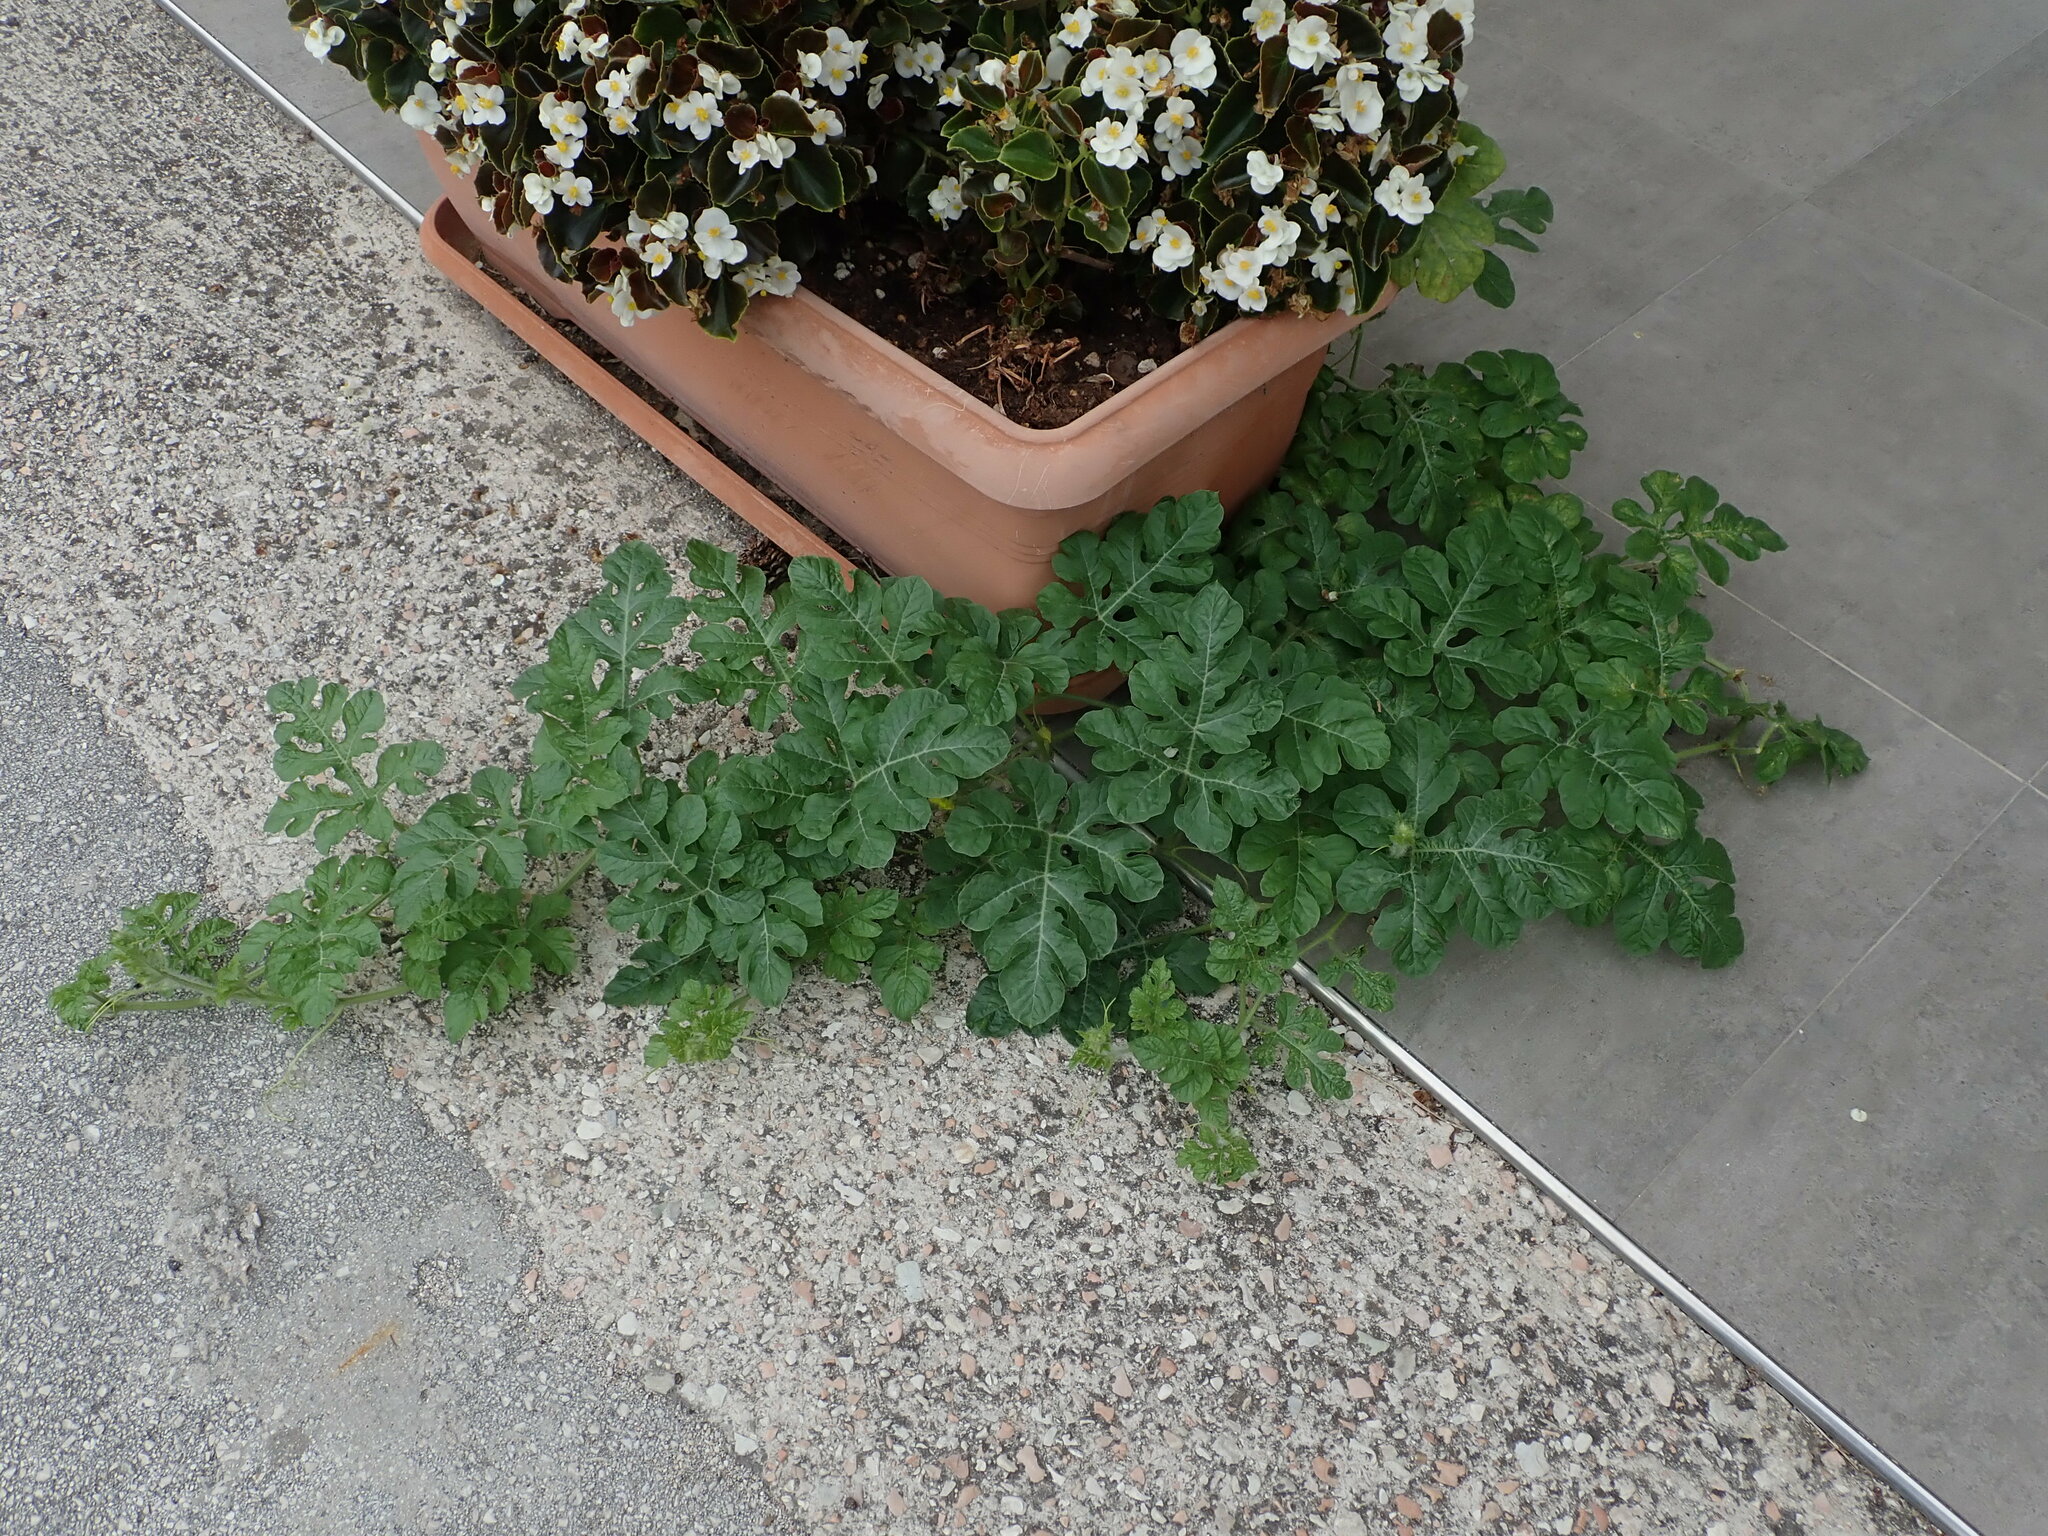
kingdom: Plantae
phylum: Tracheophyta
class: Magnoliopsida
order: Cucurbitales
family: Cucurbitaceae
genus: Citrullus
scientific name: Citrullus lanatus
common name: Watermelon
